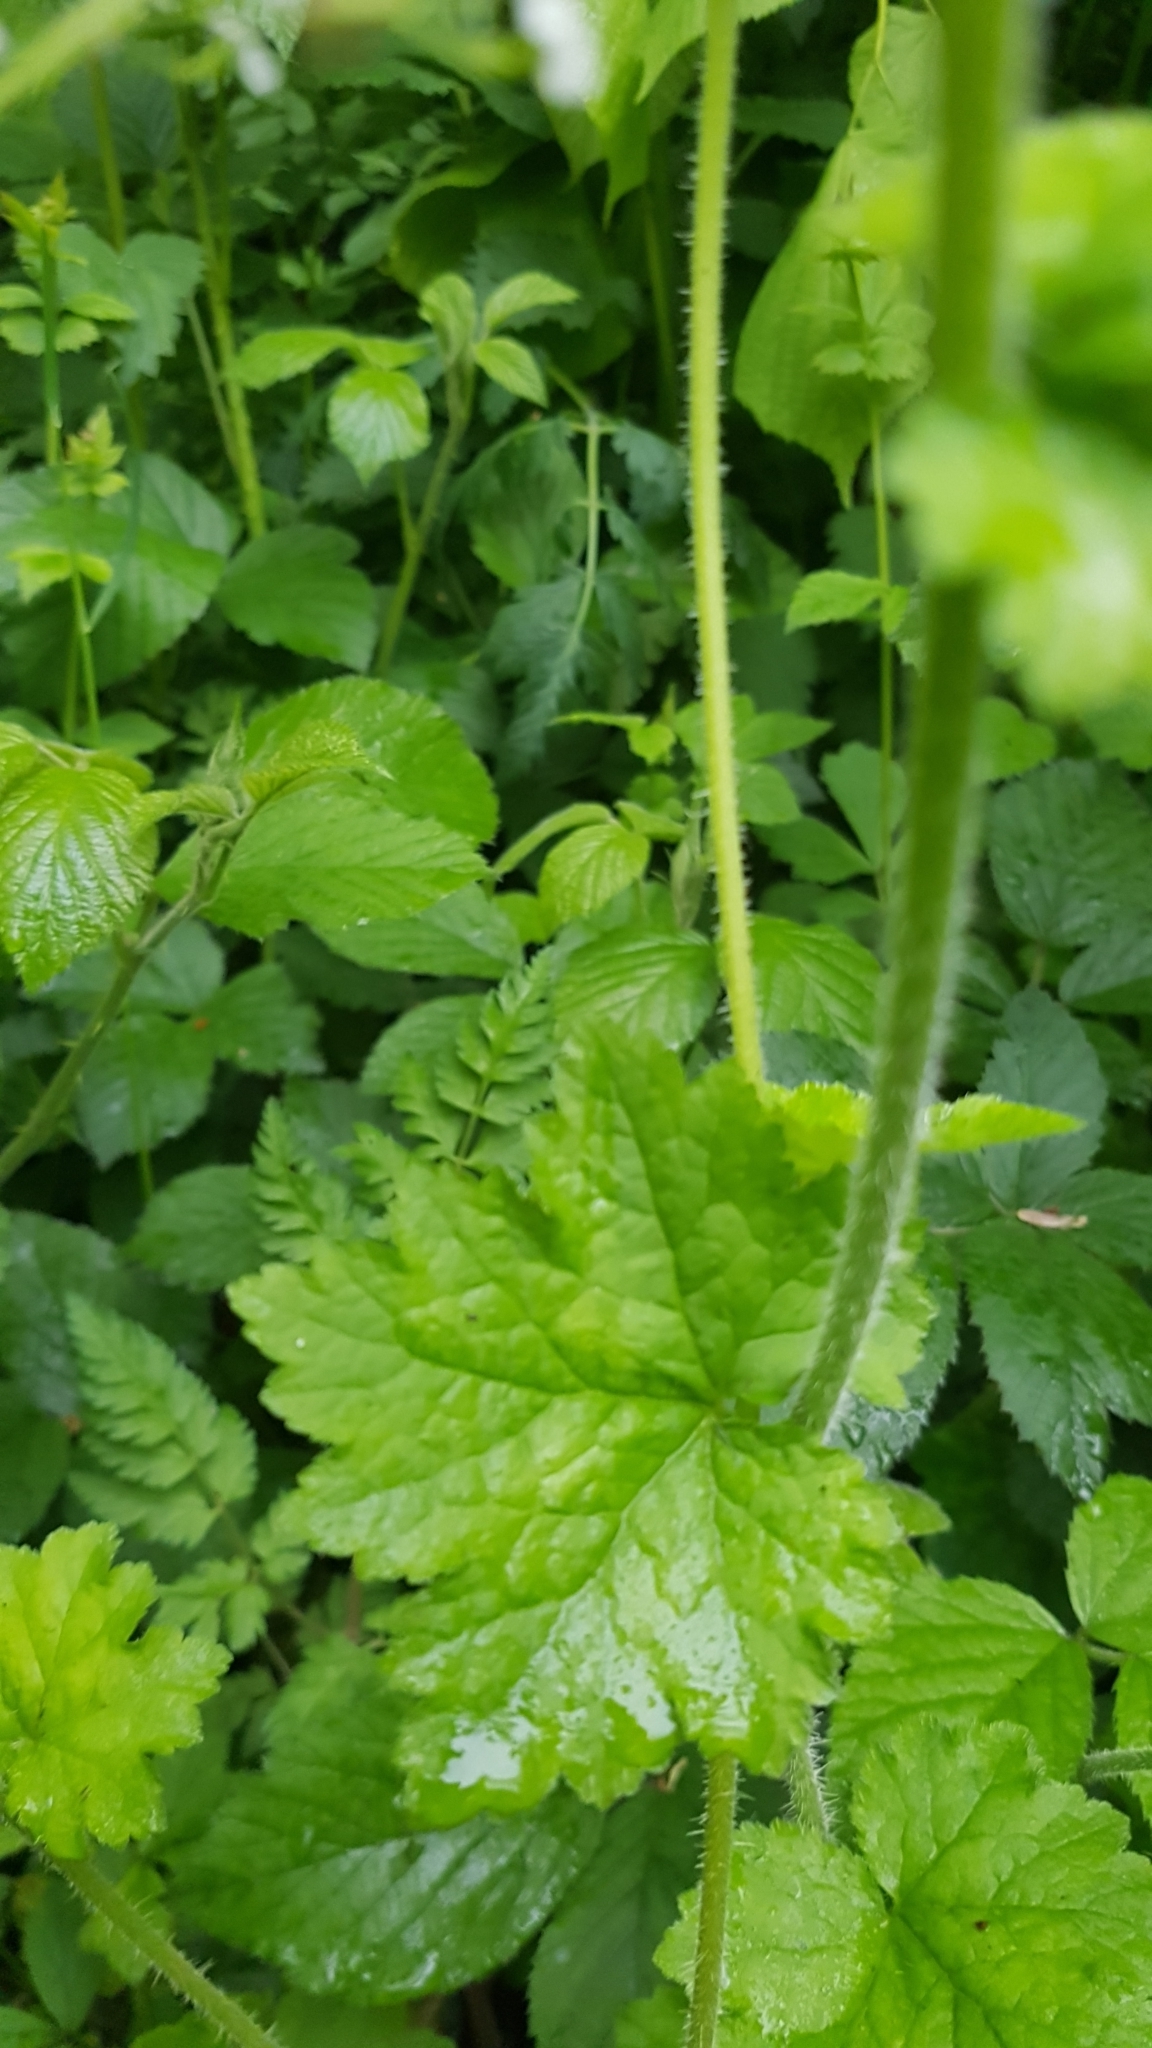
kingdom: Plantae
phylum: Tracheophyta
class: Magnoliopsida
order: Saxifragales
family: Saxifragaceae
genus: Tellima
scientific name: Tellima grandiflora
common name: Fringecups
